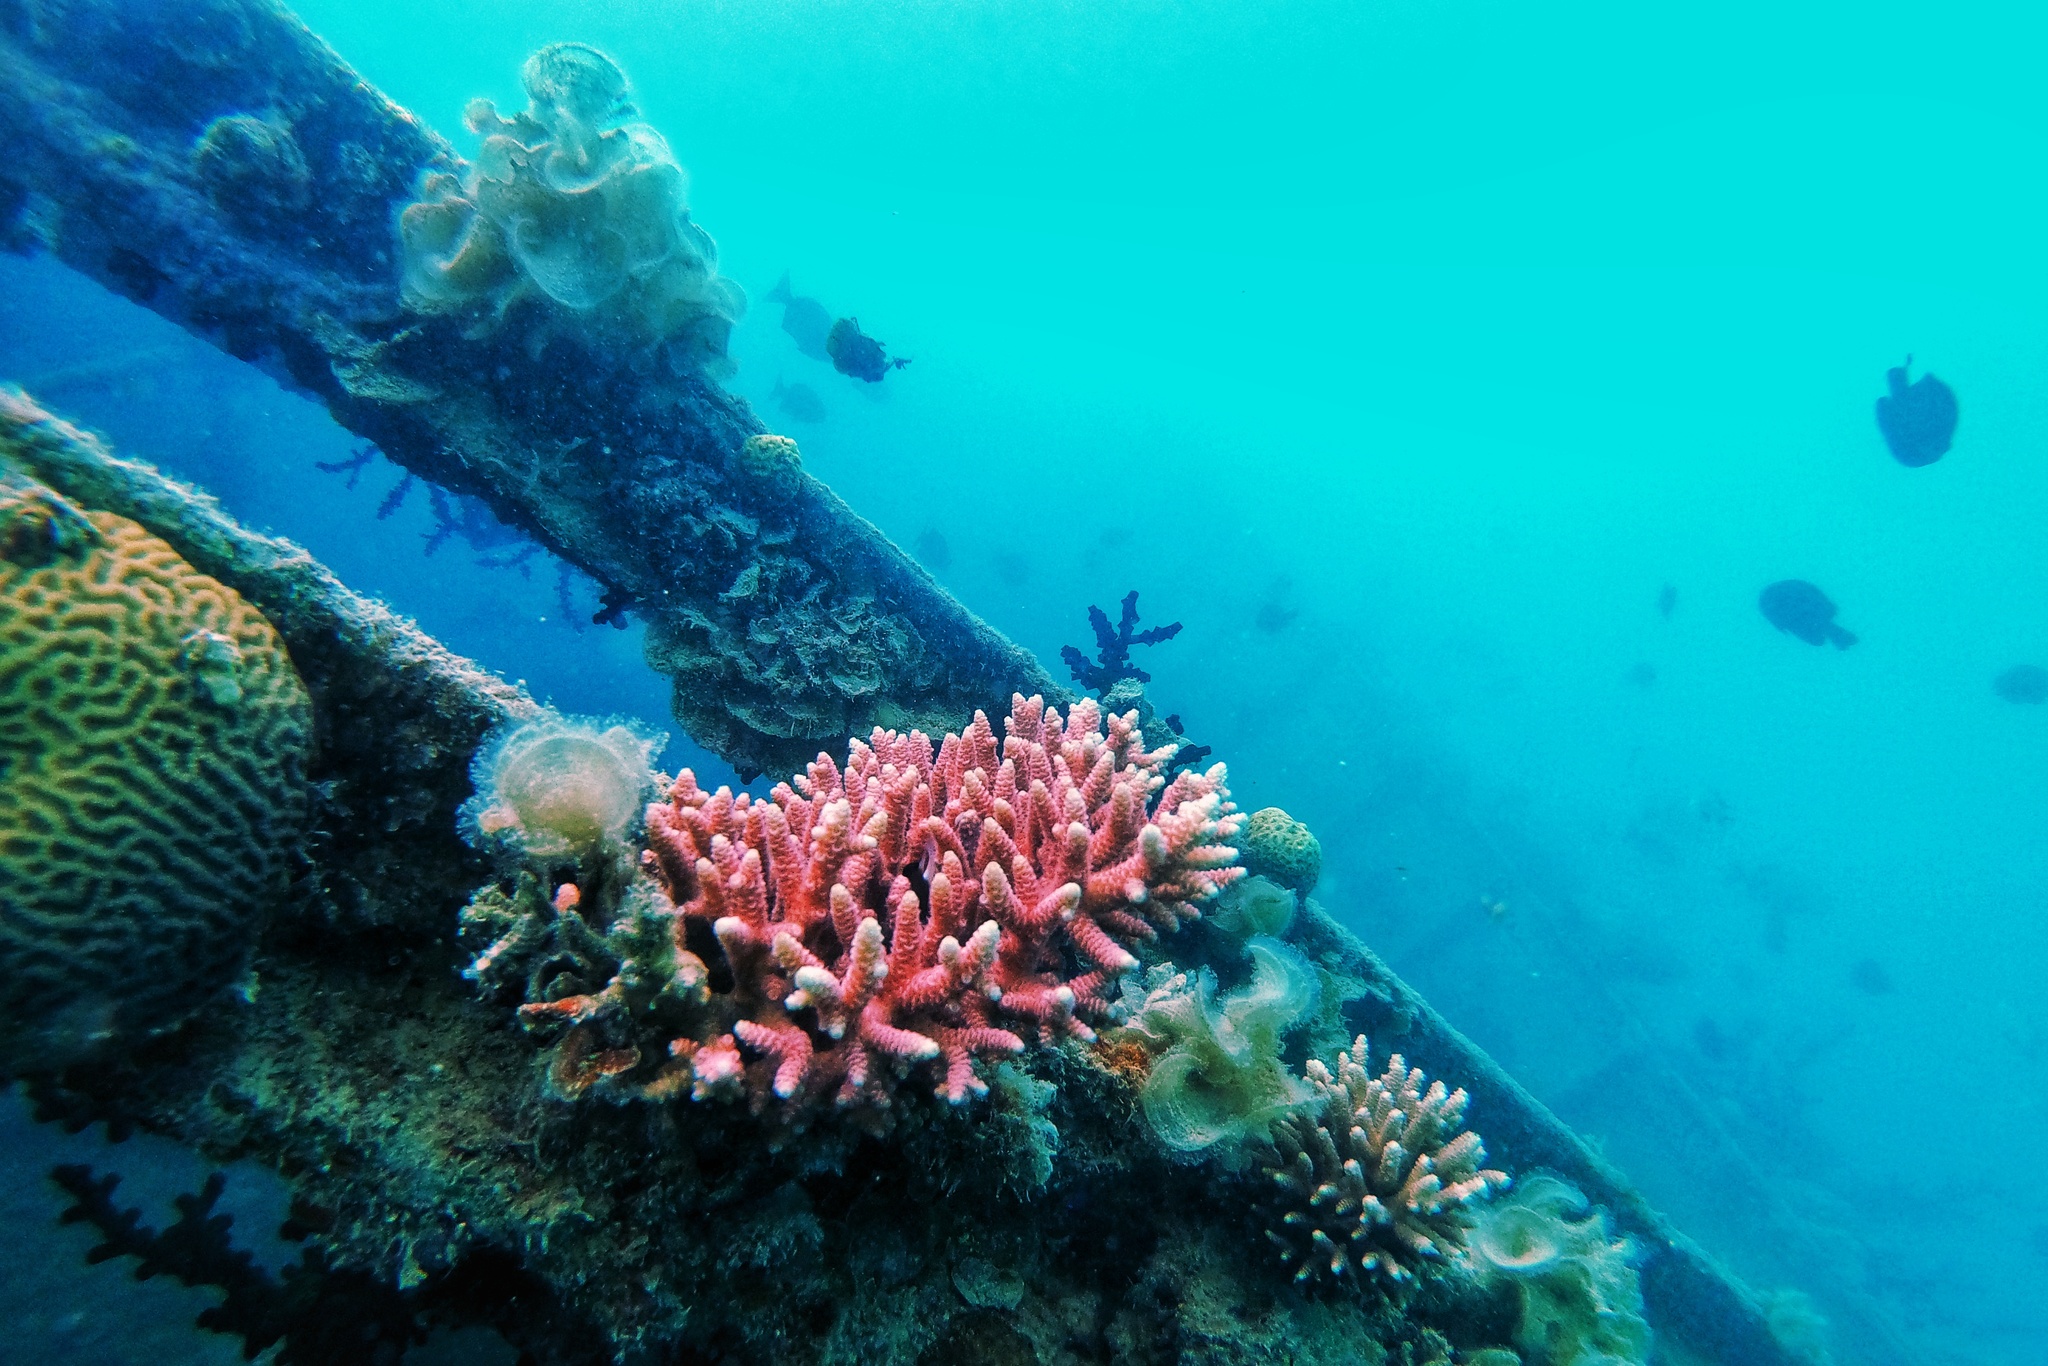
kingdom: Animalia
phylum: Cnidaria
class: Anthozoa
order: Scleractinia
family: Acroporidae
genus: Acropora
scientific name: Acropora millepora
